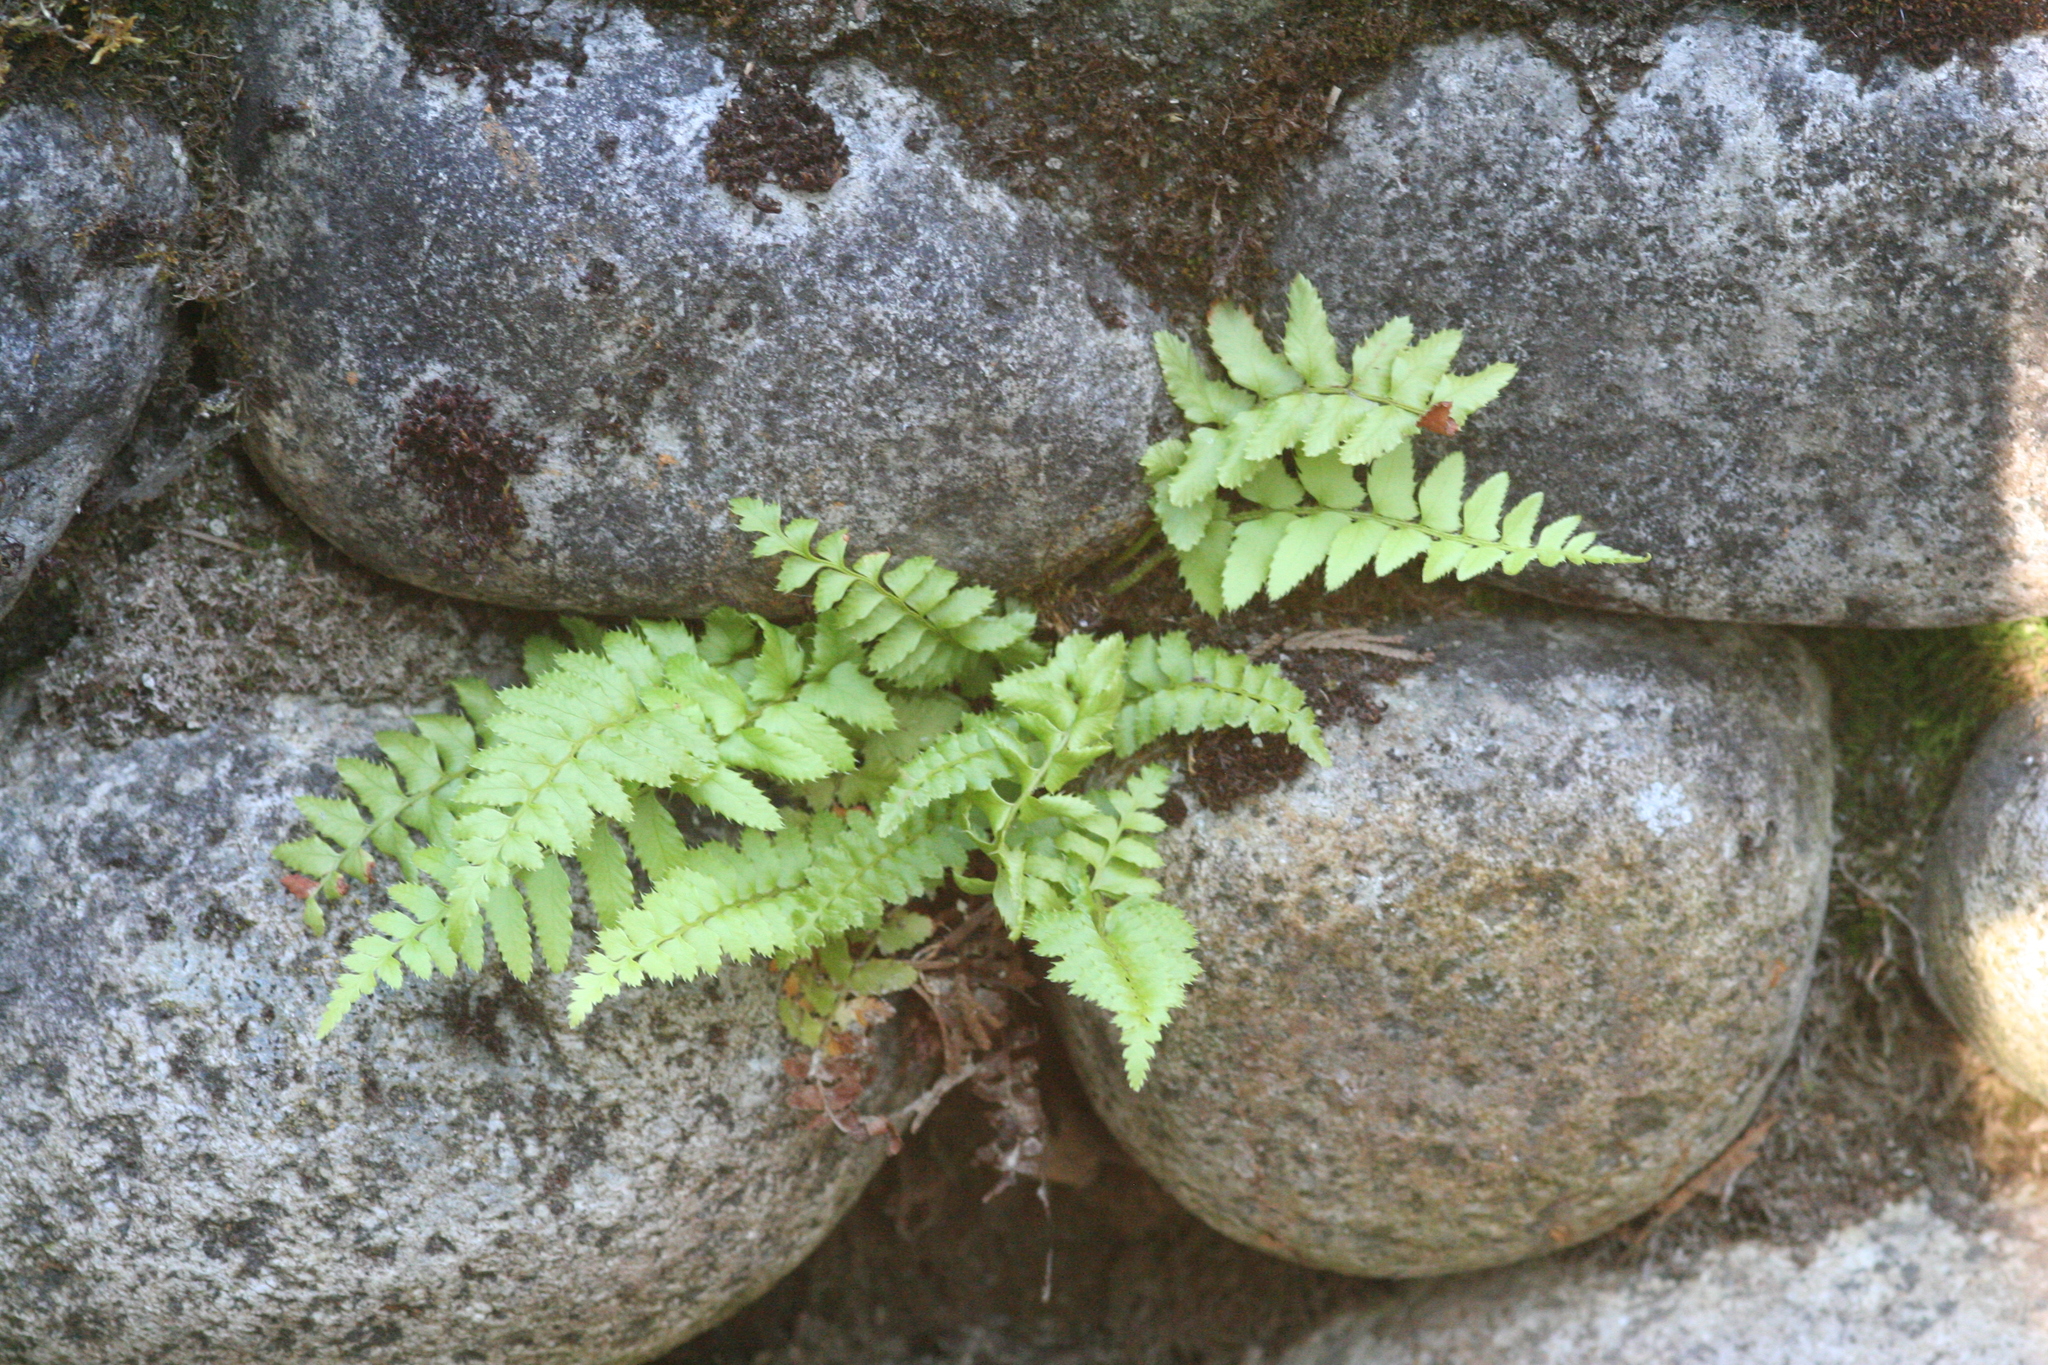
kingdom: Plantae
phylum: Tracheophyta
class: Polypodiopsida
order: Polypodiales
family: Dryopteridaceae
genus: Polystichum
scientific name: Polystichum munitum
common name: Western sword-fern
